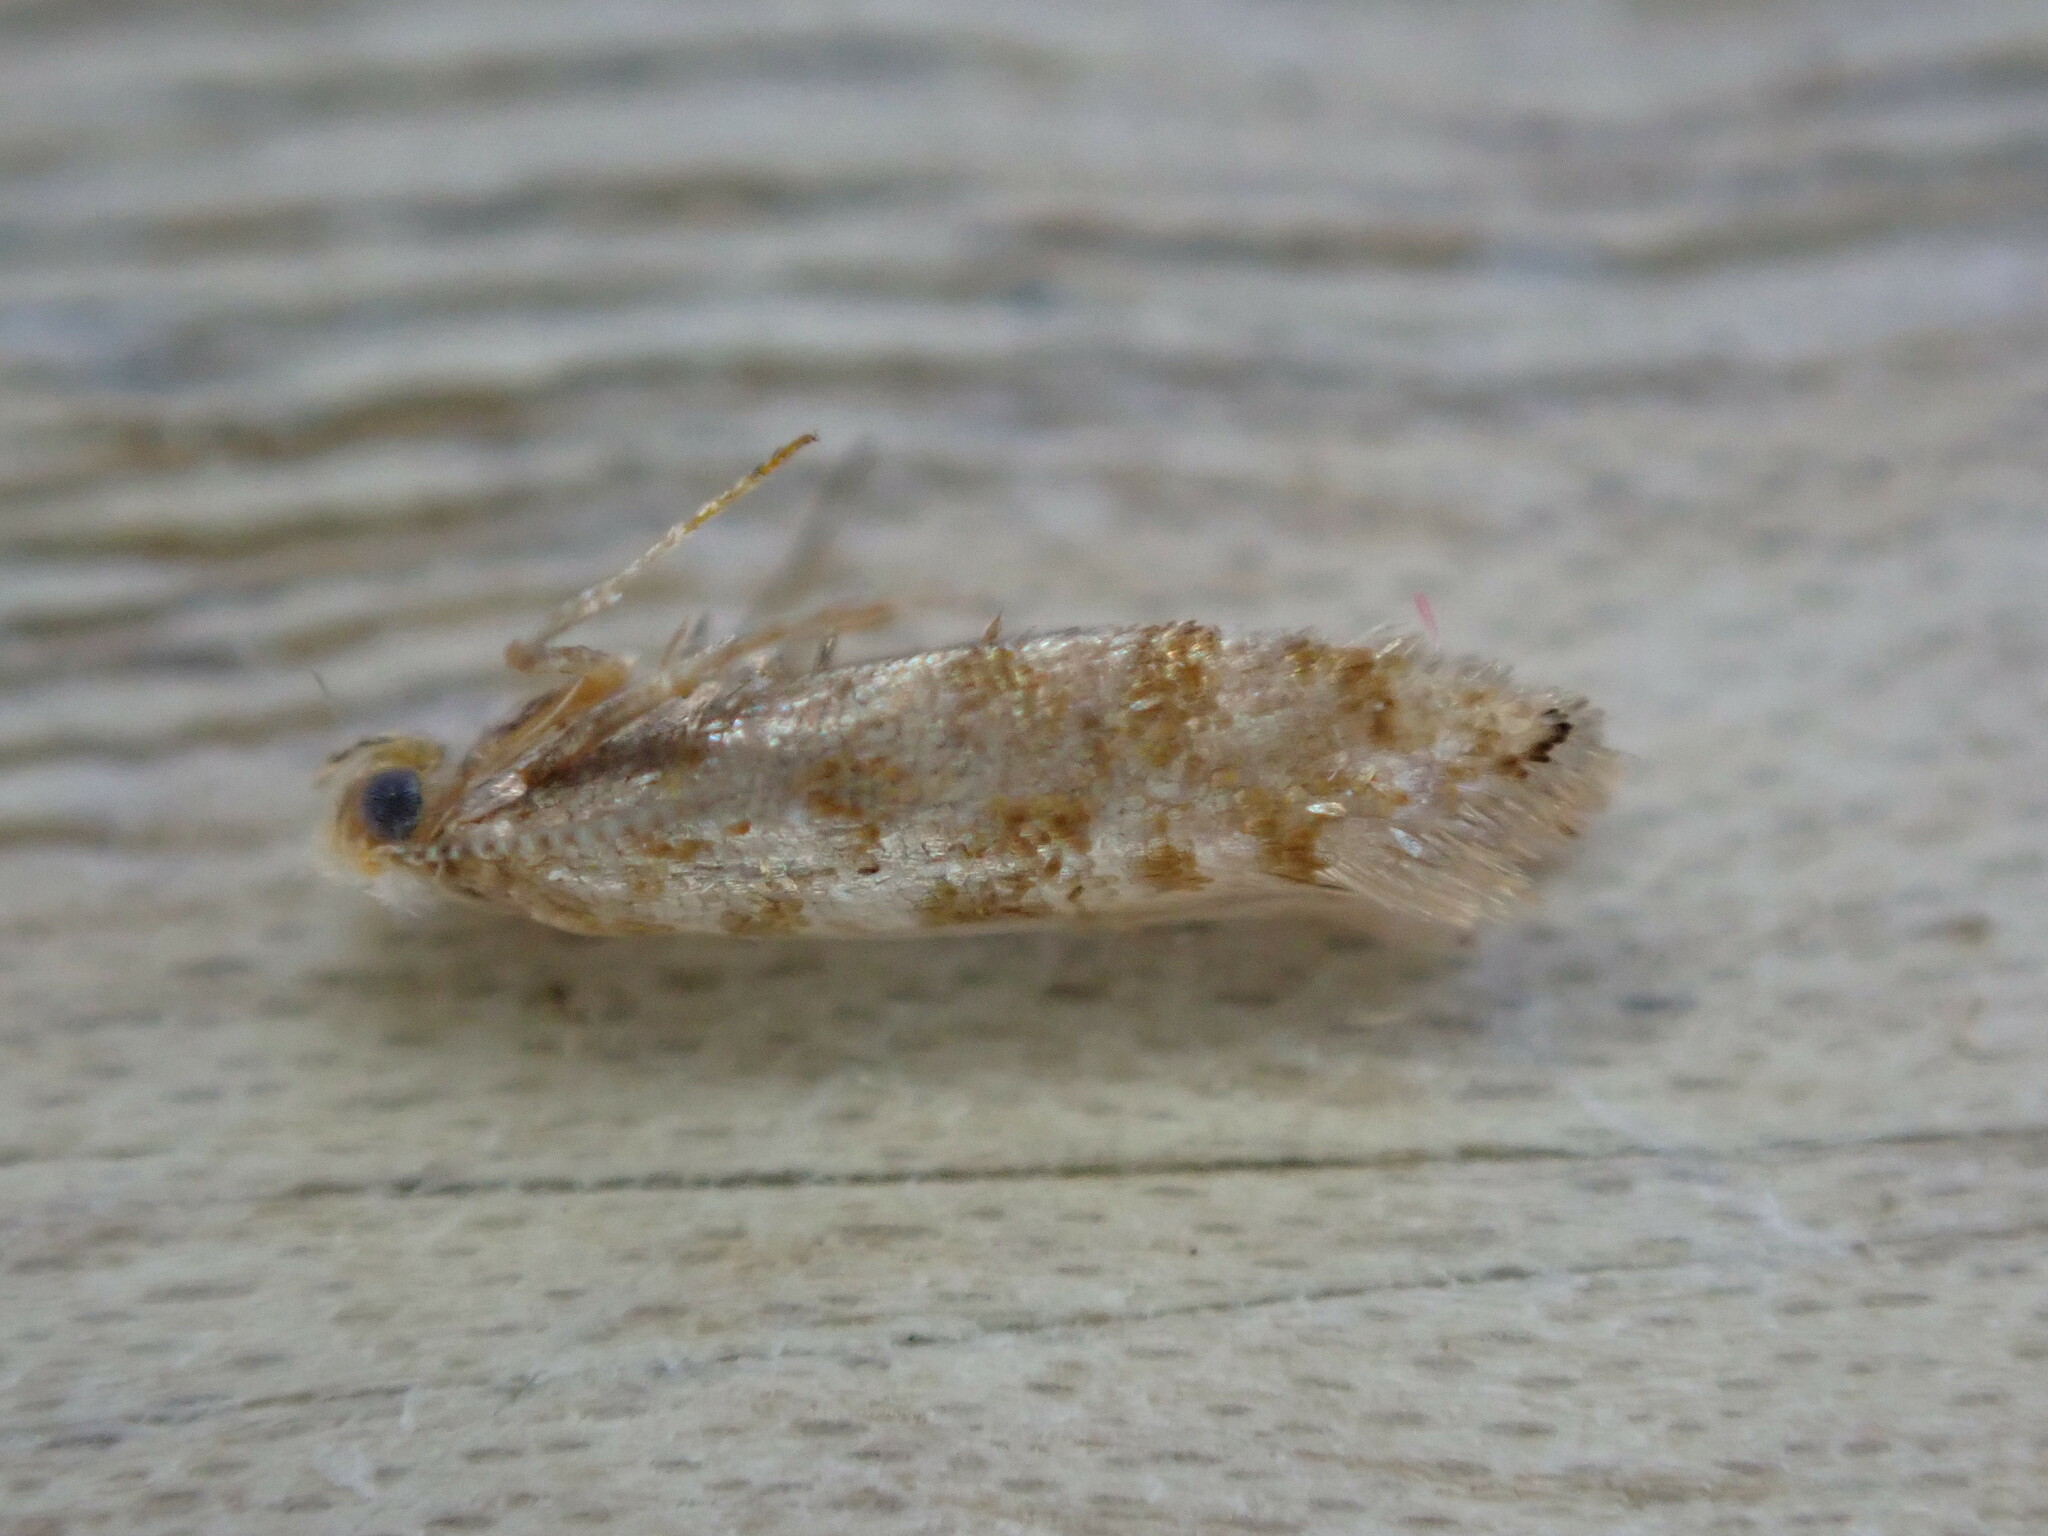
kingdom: Animalia
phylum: Arthropoda
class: Insecta
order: Lepidoptera
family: Argyresthiidae
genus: Argyresthia
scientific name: Argyresthia cupressella
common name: Cypress tip moth
